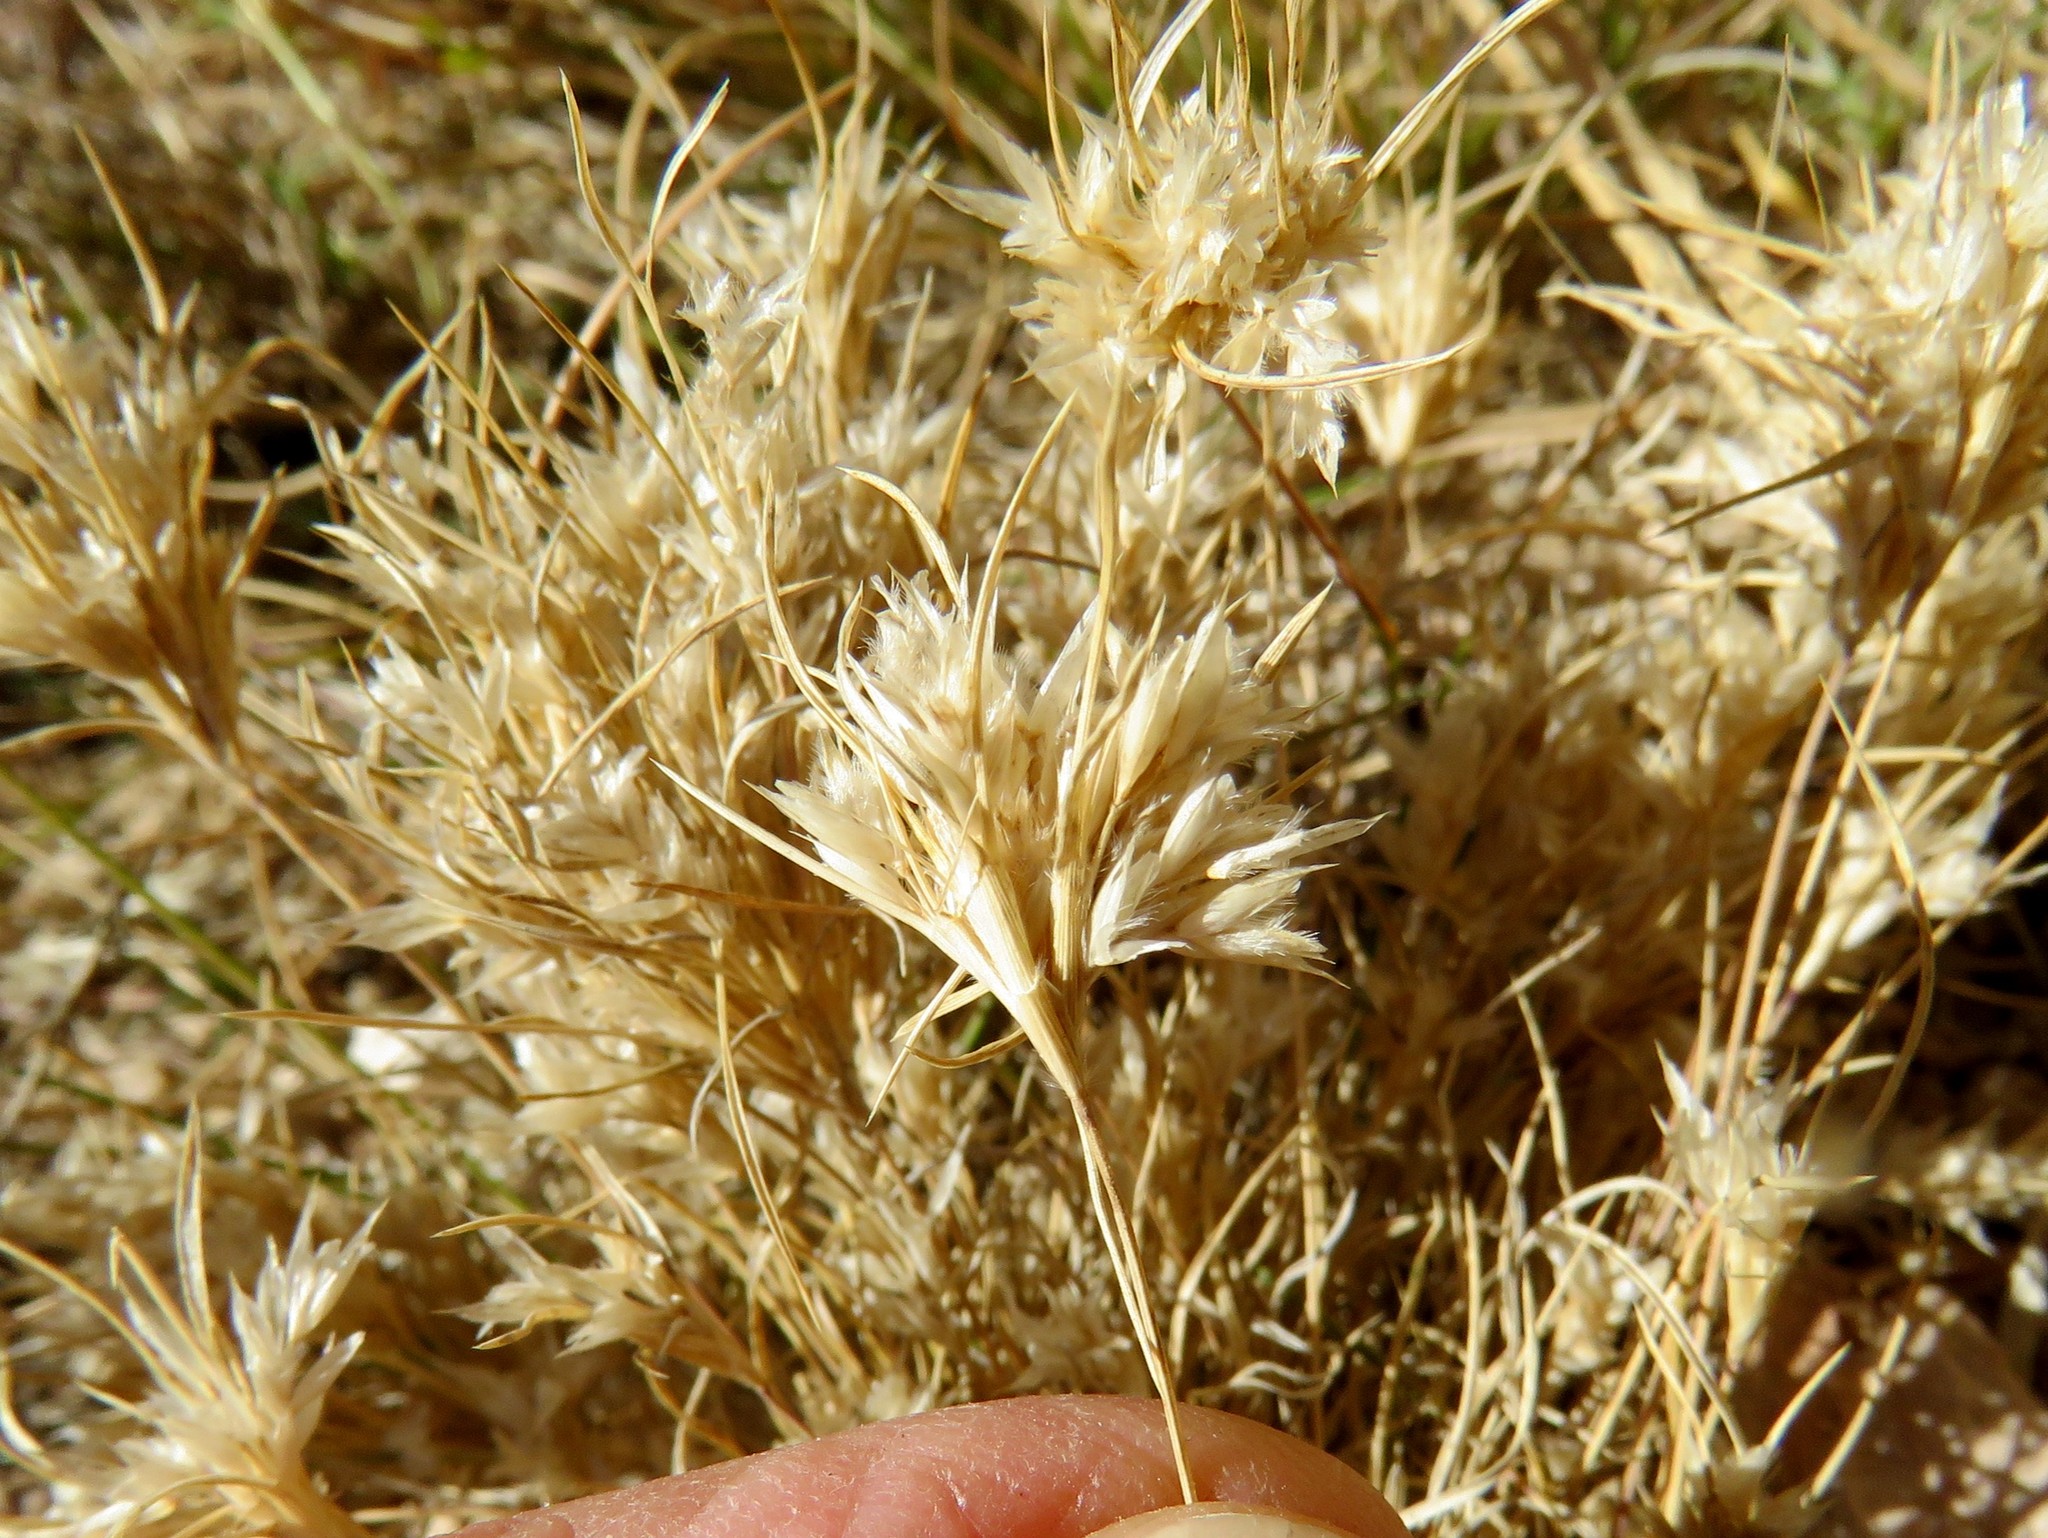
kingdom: Plantae
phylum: Tracheophyta
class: Liliopsida
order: Poales
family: Poaceae
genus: Dasyochloa
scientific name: Dasyochloa pulchella
